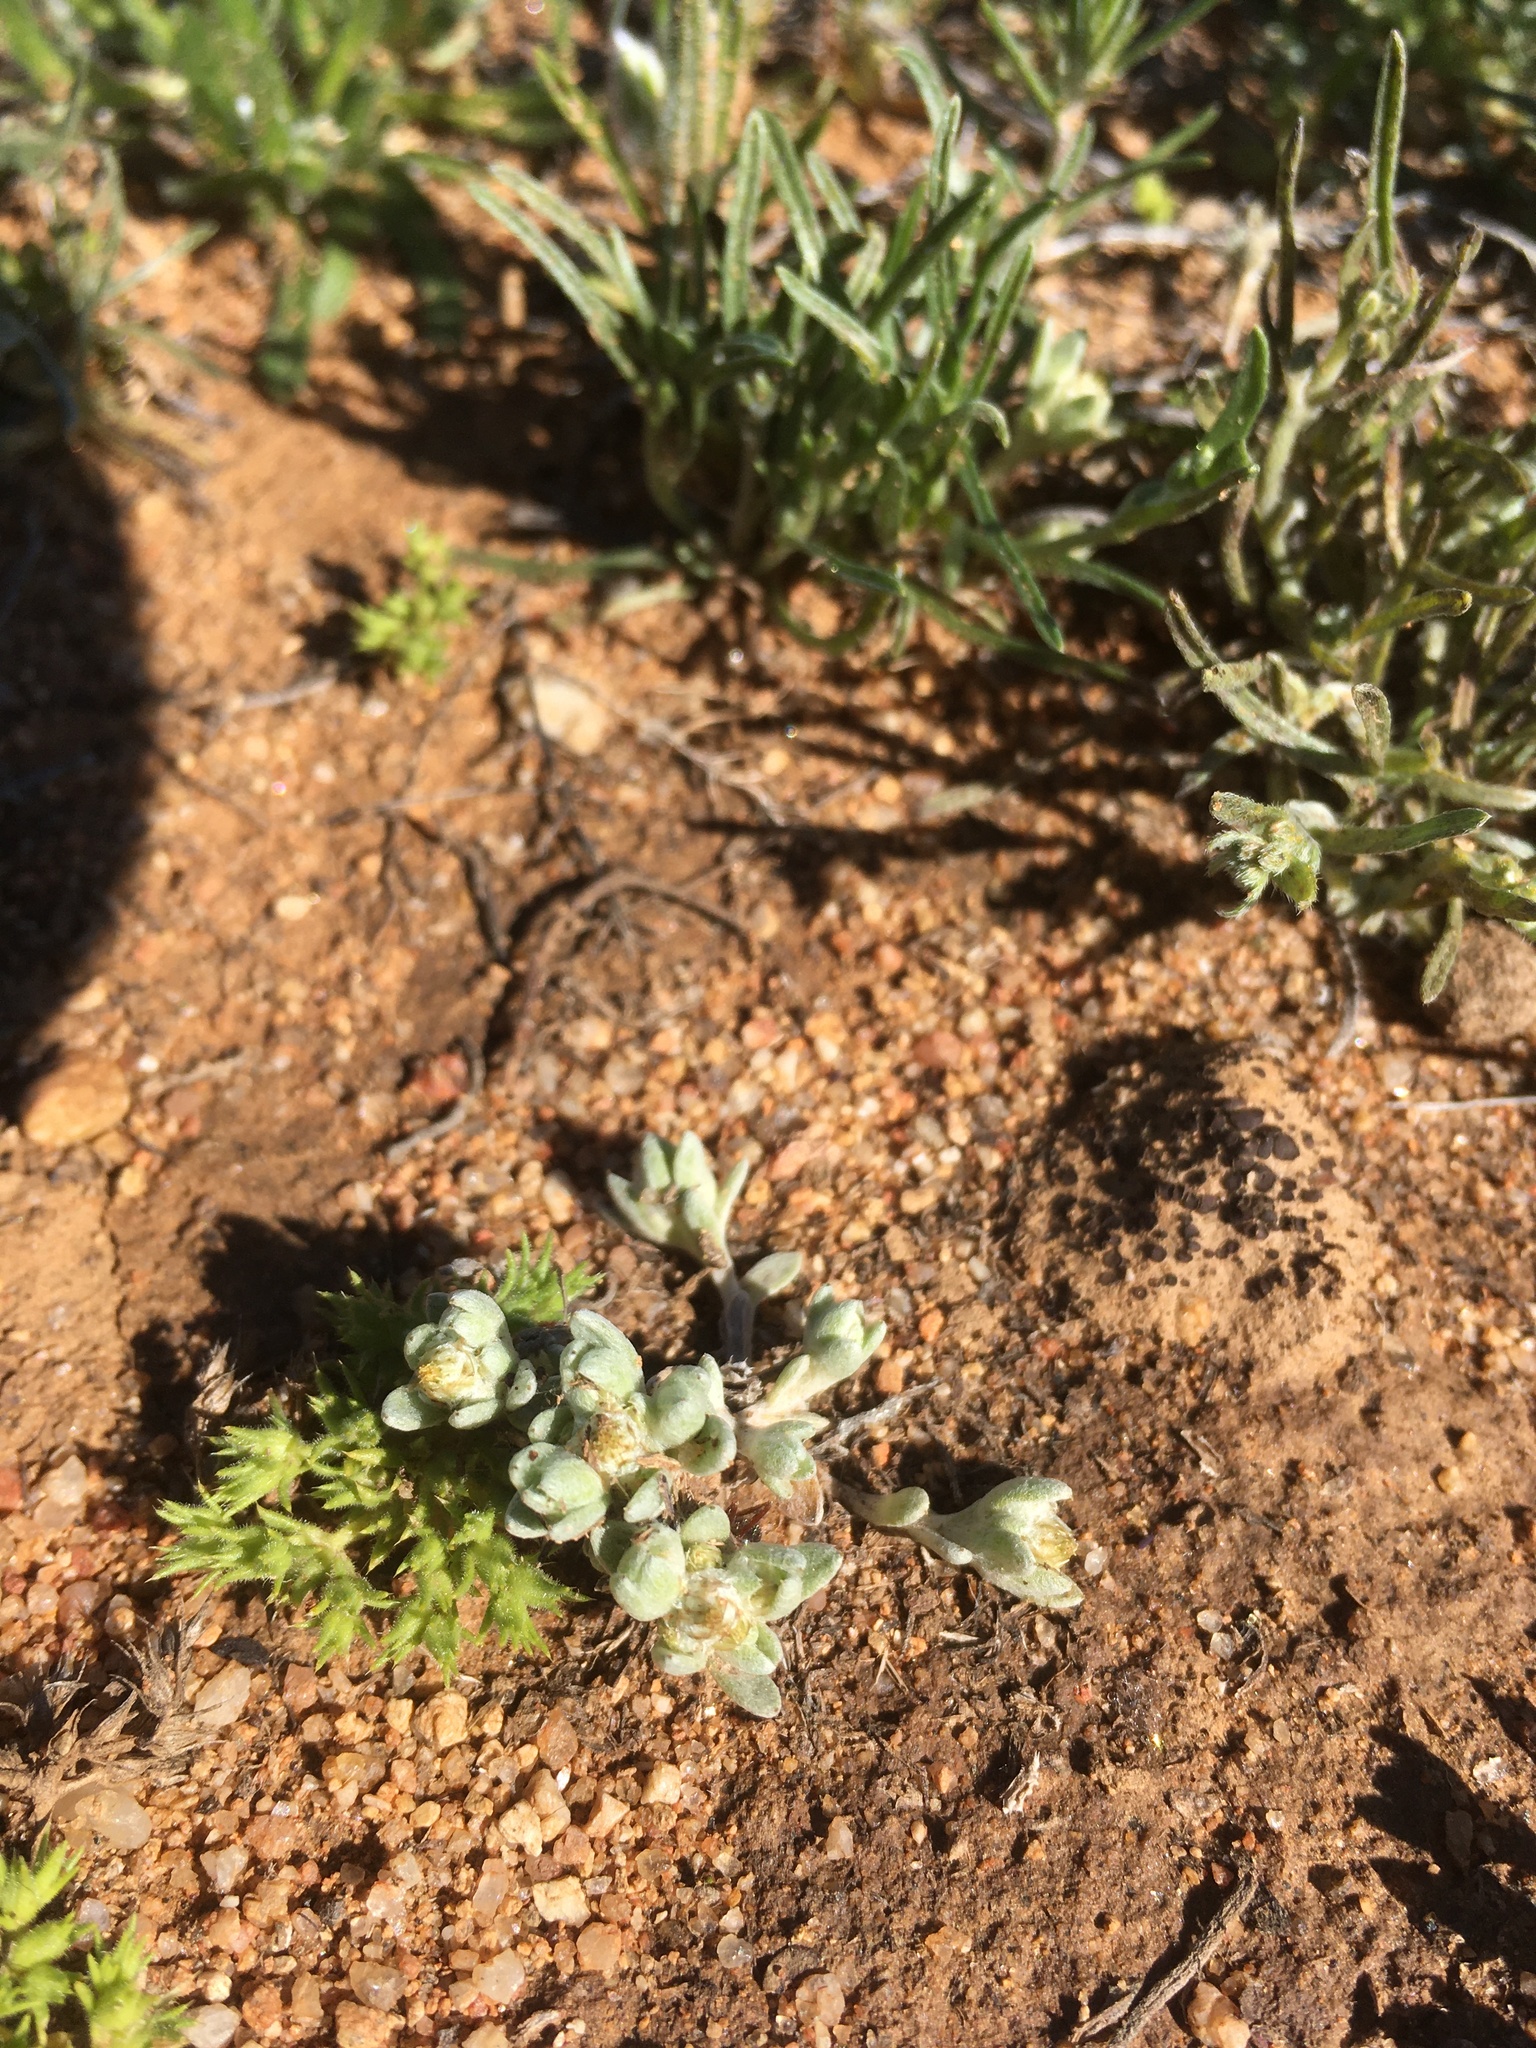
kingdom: Plantae
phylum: Tracheophyta
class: Magnoliopsida
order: Asterales
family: Asteraceae
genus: Stylocline
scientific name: Stylocline sonorensis
